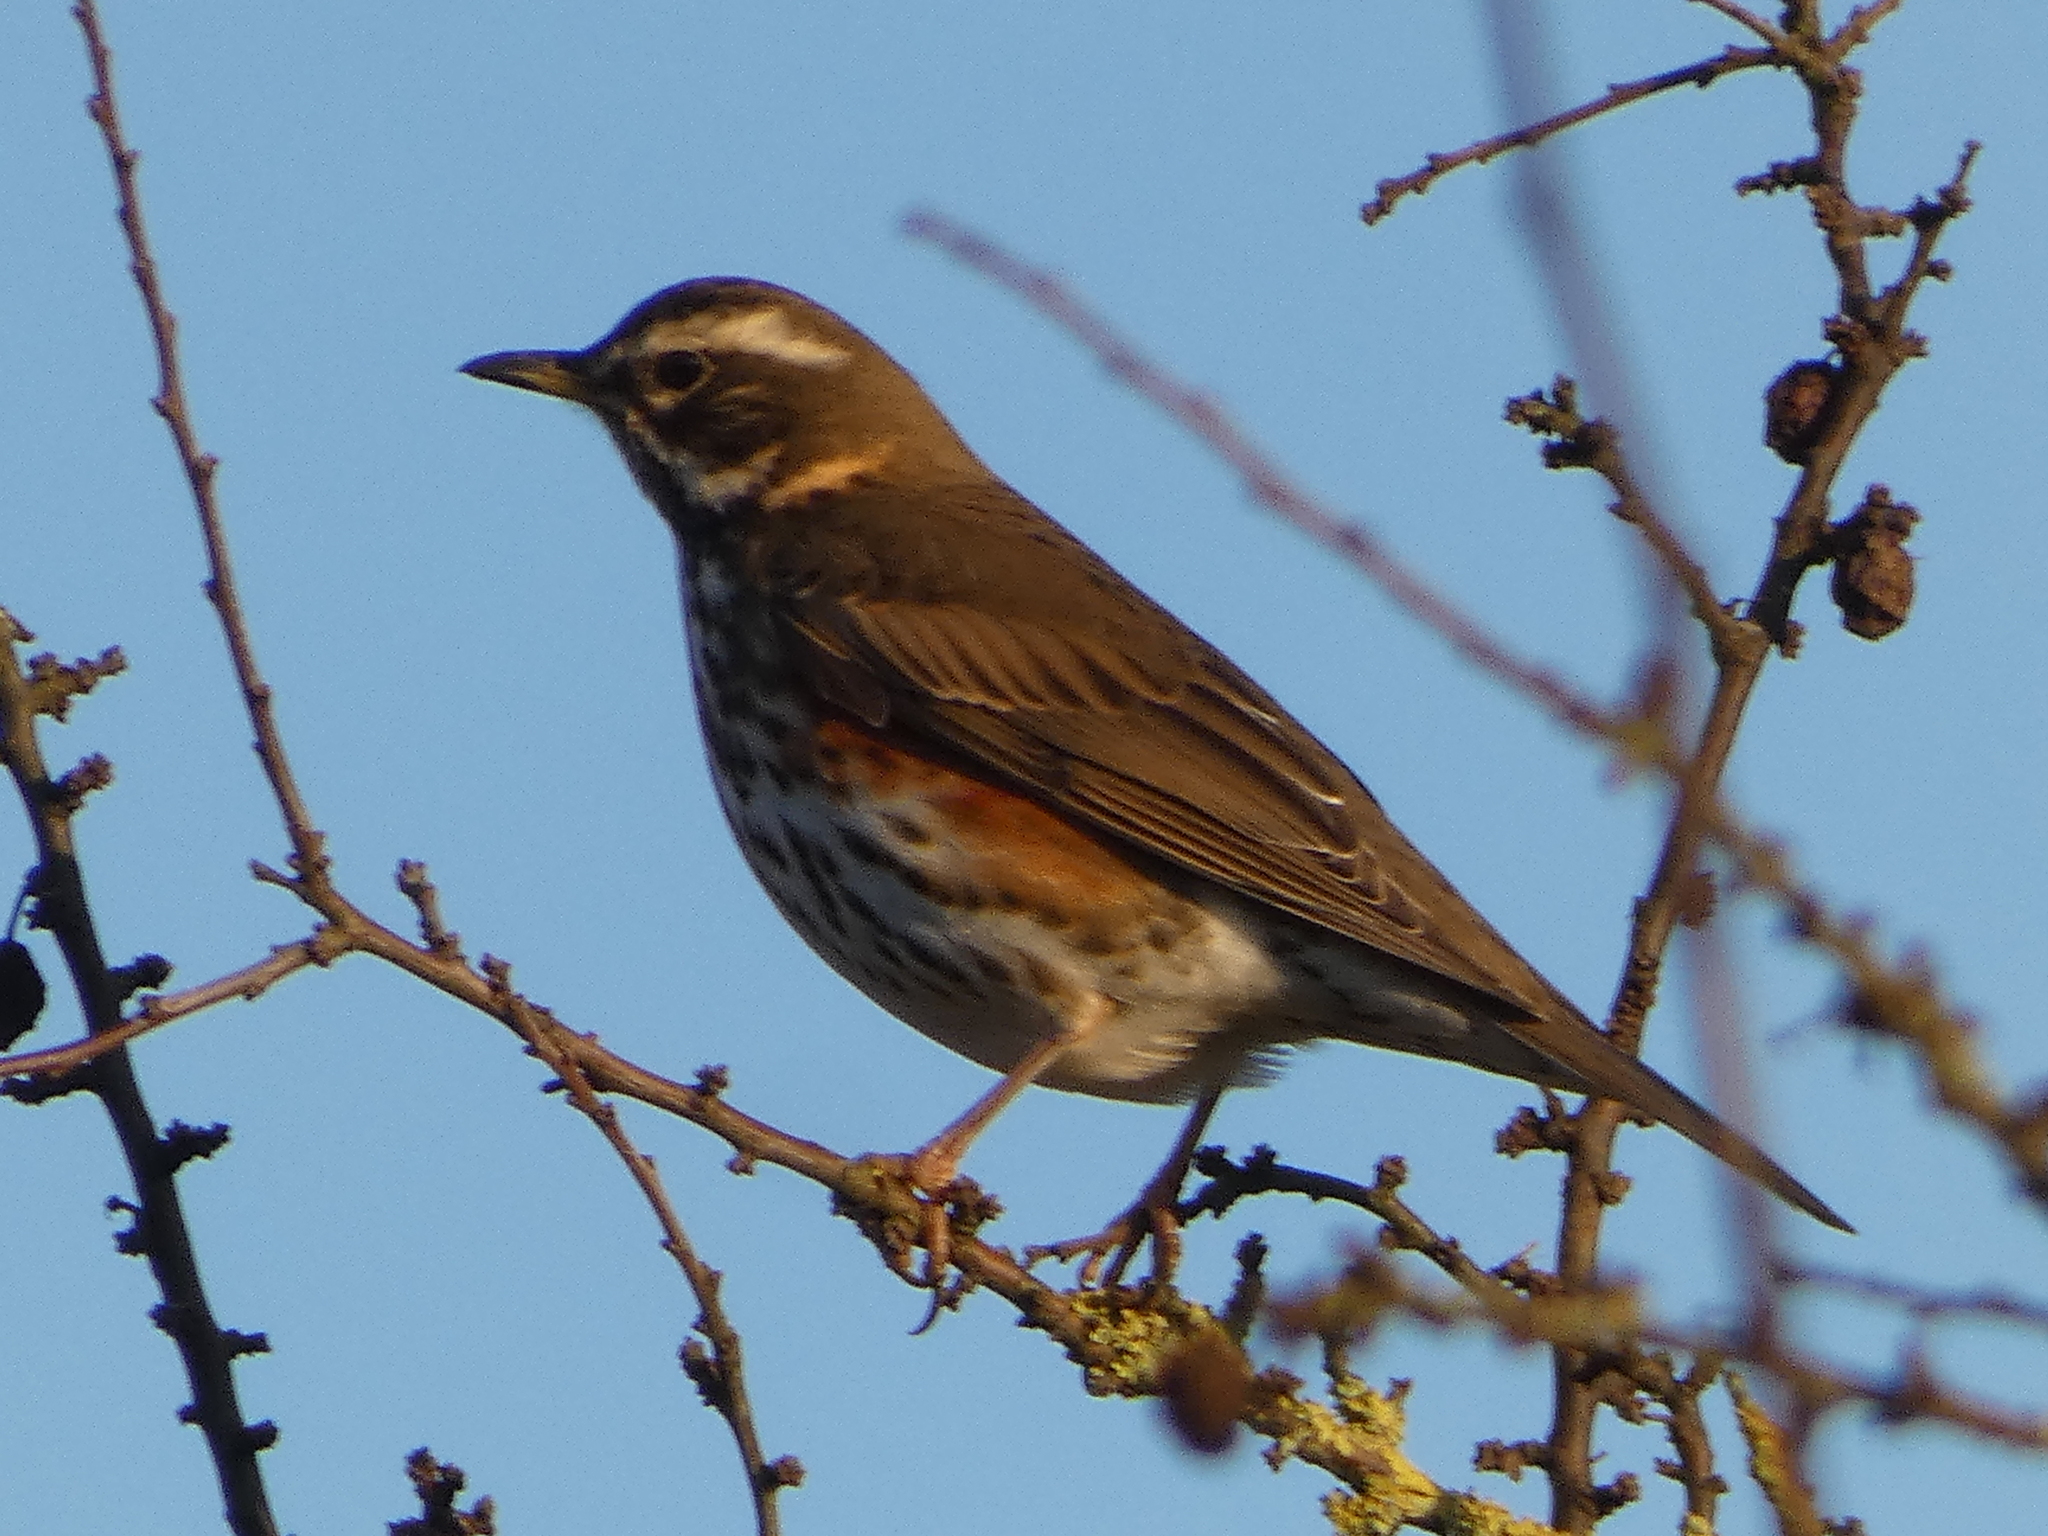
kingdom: Animalia
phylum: Chordata
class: Aves
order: Passeriformes
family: Turdidae
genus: Turdus
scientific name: Turdus iliacus
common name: Redwing
